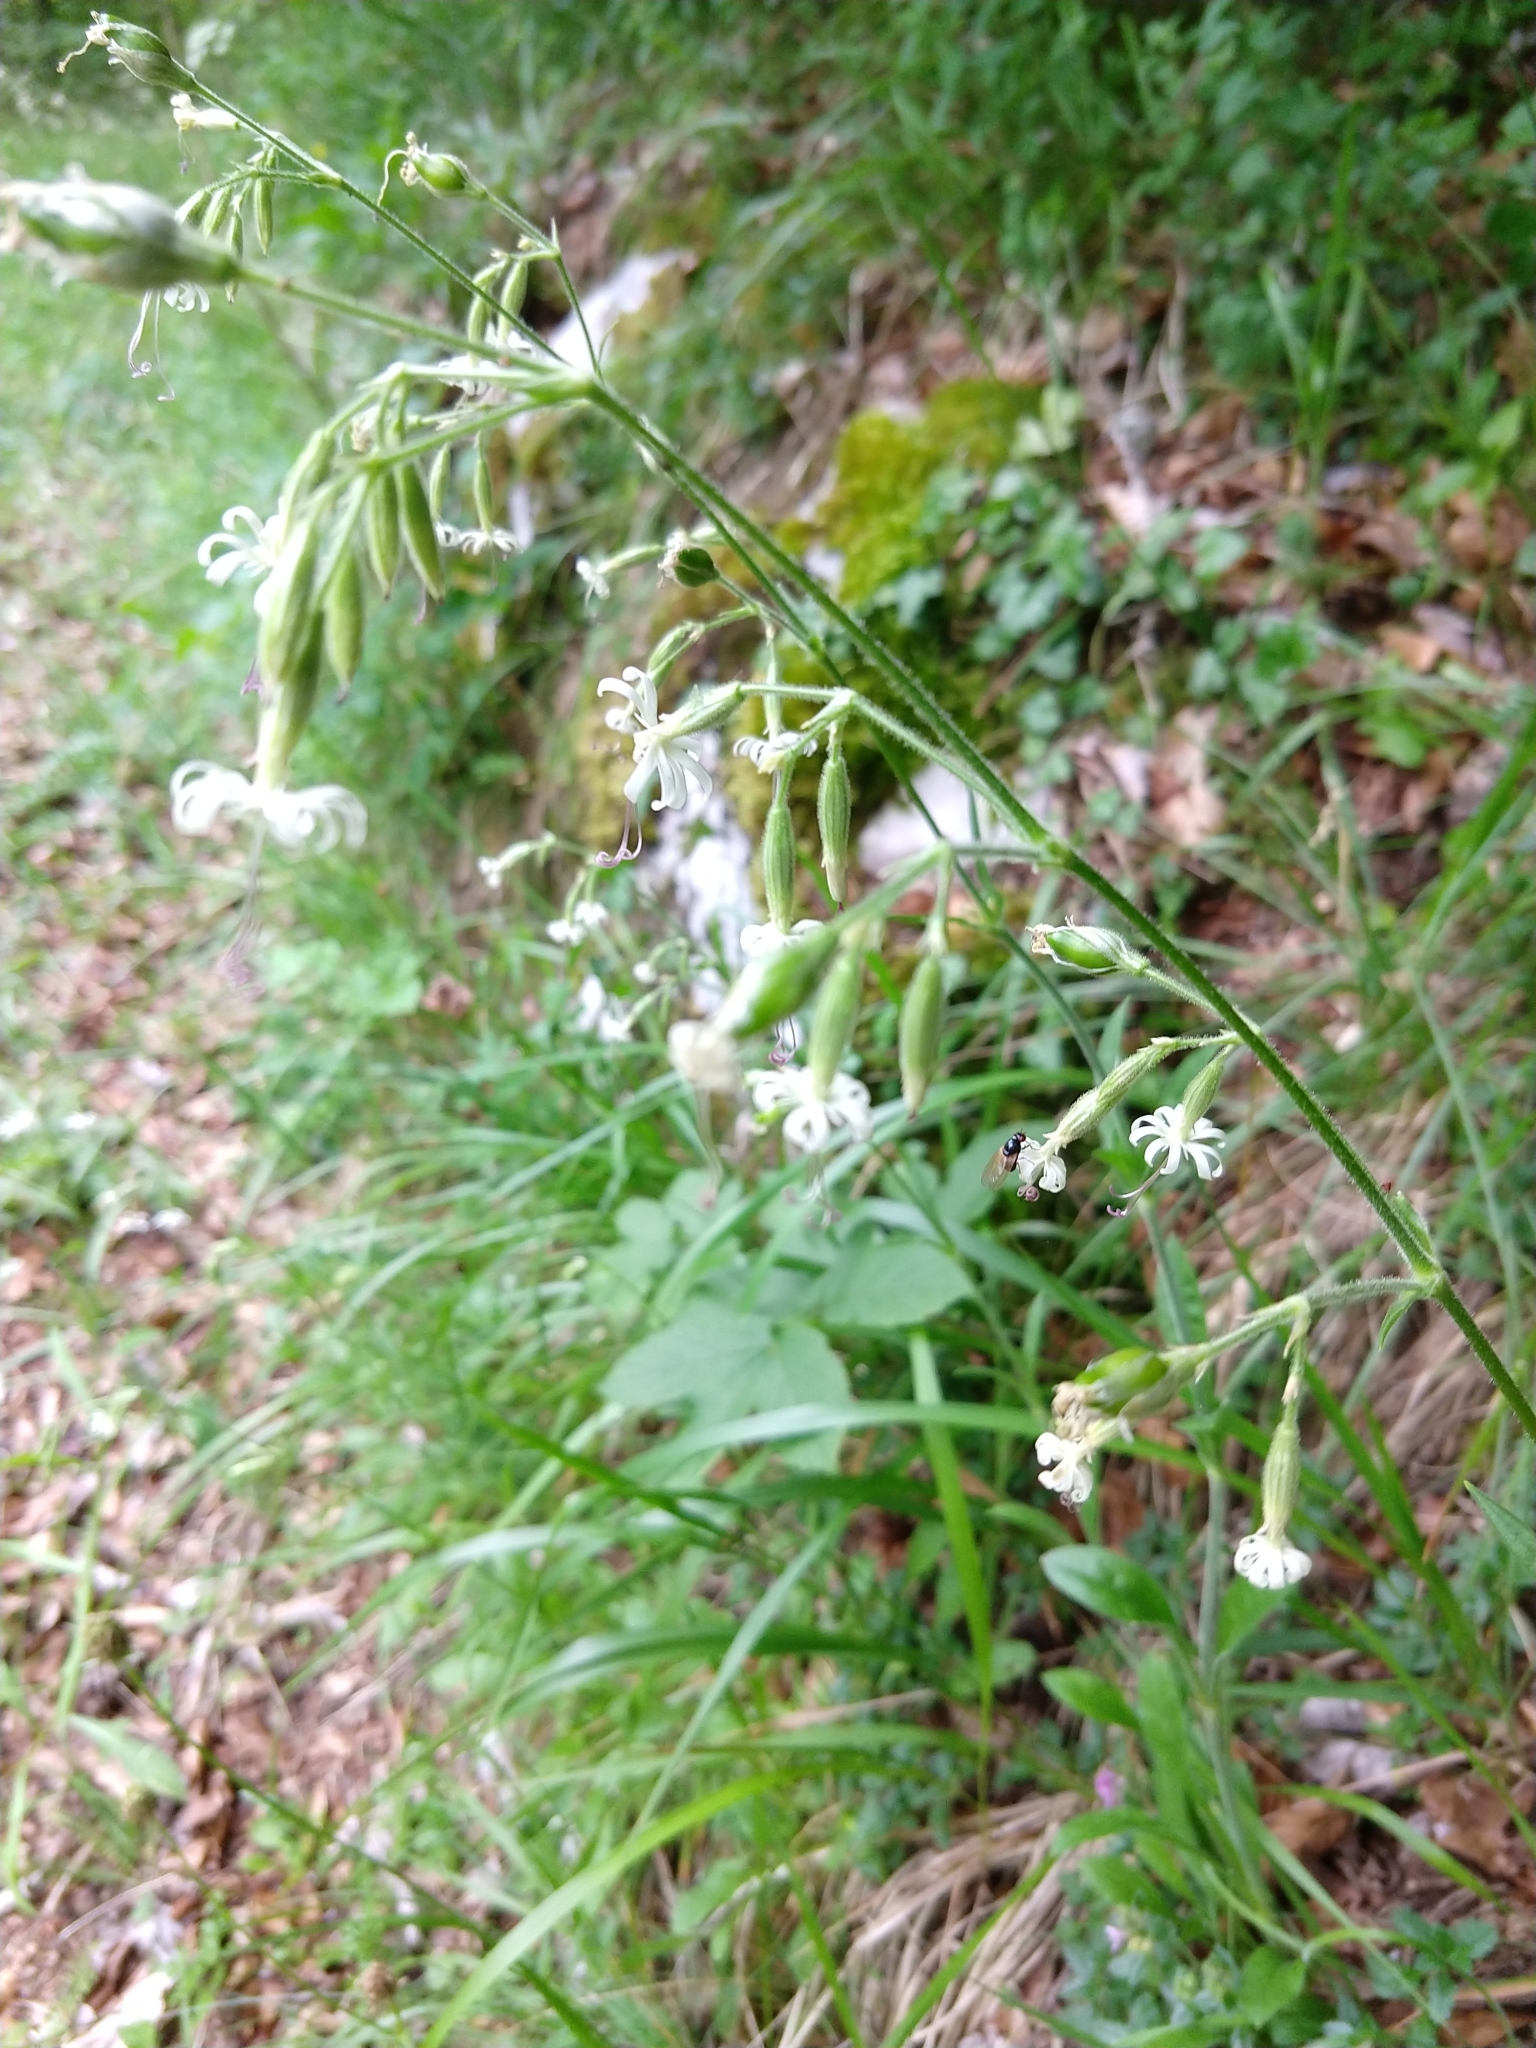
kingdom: Plantae
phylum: Tracheophyta
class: Magnoliopsida
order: Caryophyllales
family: Caryophyllaceae
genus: Silene
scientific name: Silene nutans
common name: Nottingham catchfly
